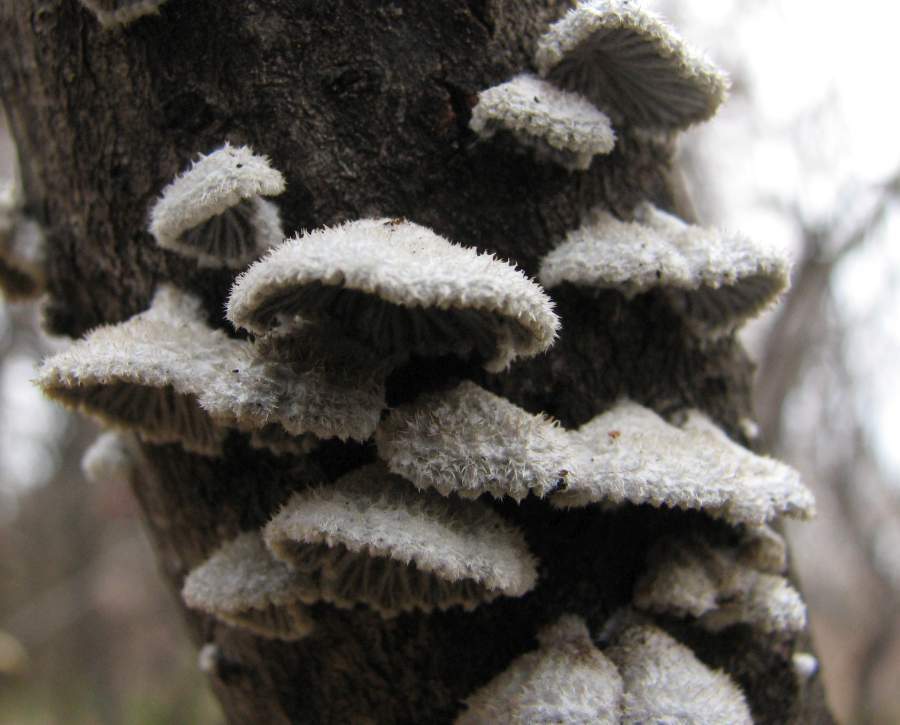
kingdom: Fungi
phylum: Basidiomycota
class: Agaricomycetes
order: Agaricales
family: Schizophyllaceae
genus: Schizophyllum
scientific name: Schizophyllum commune
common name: Common porecrust
